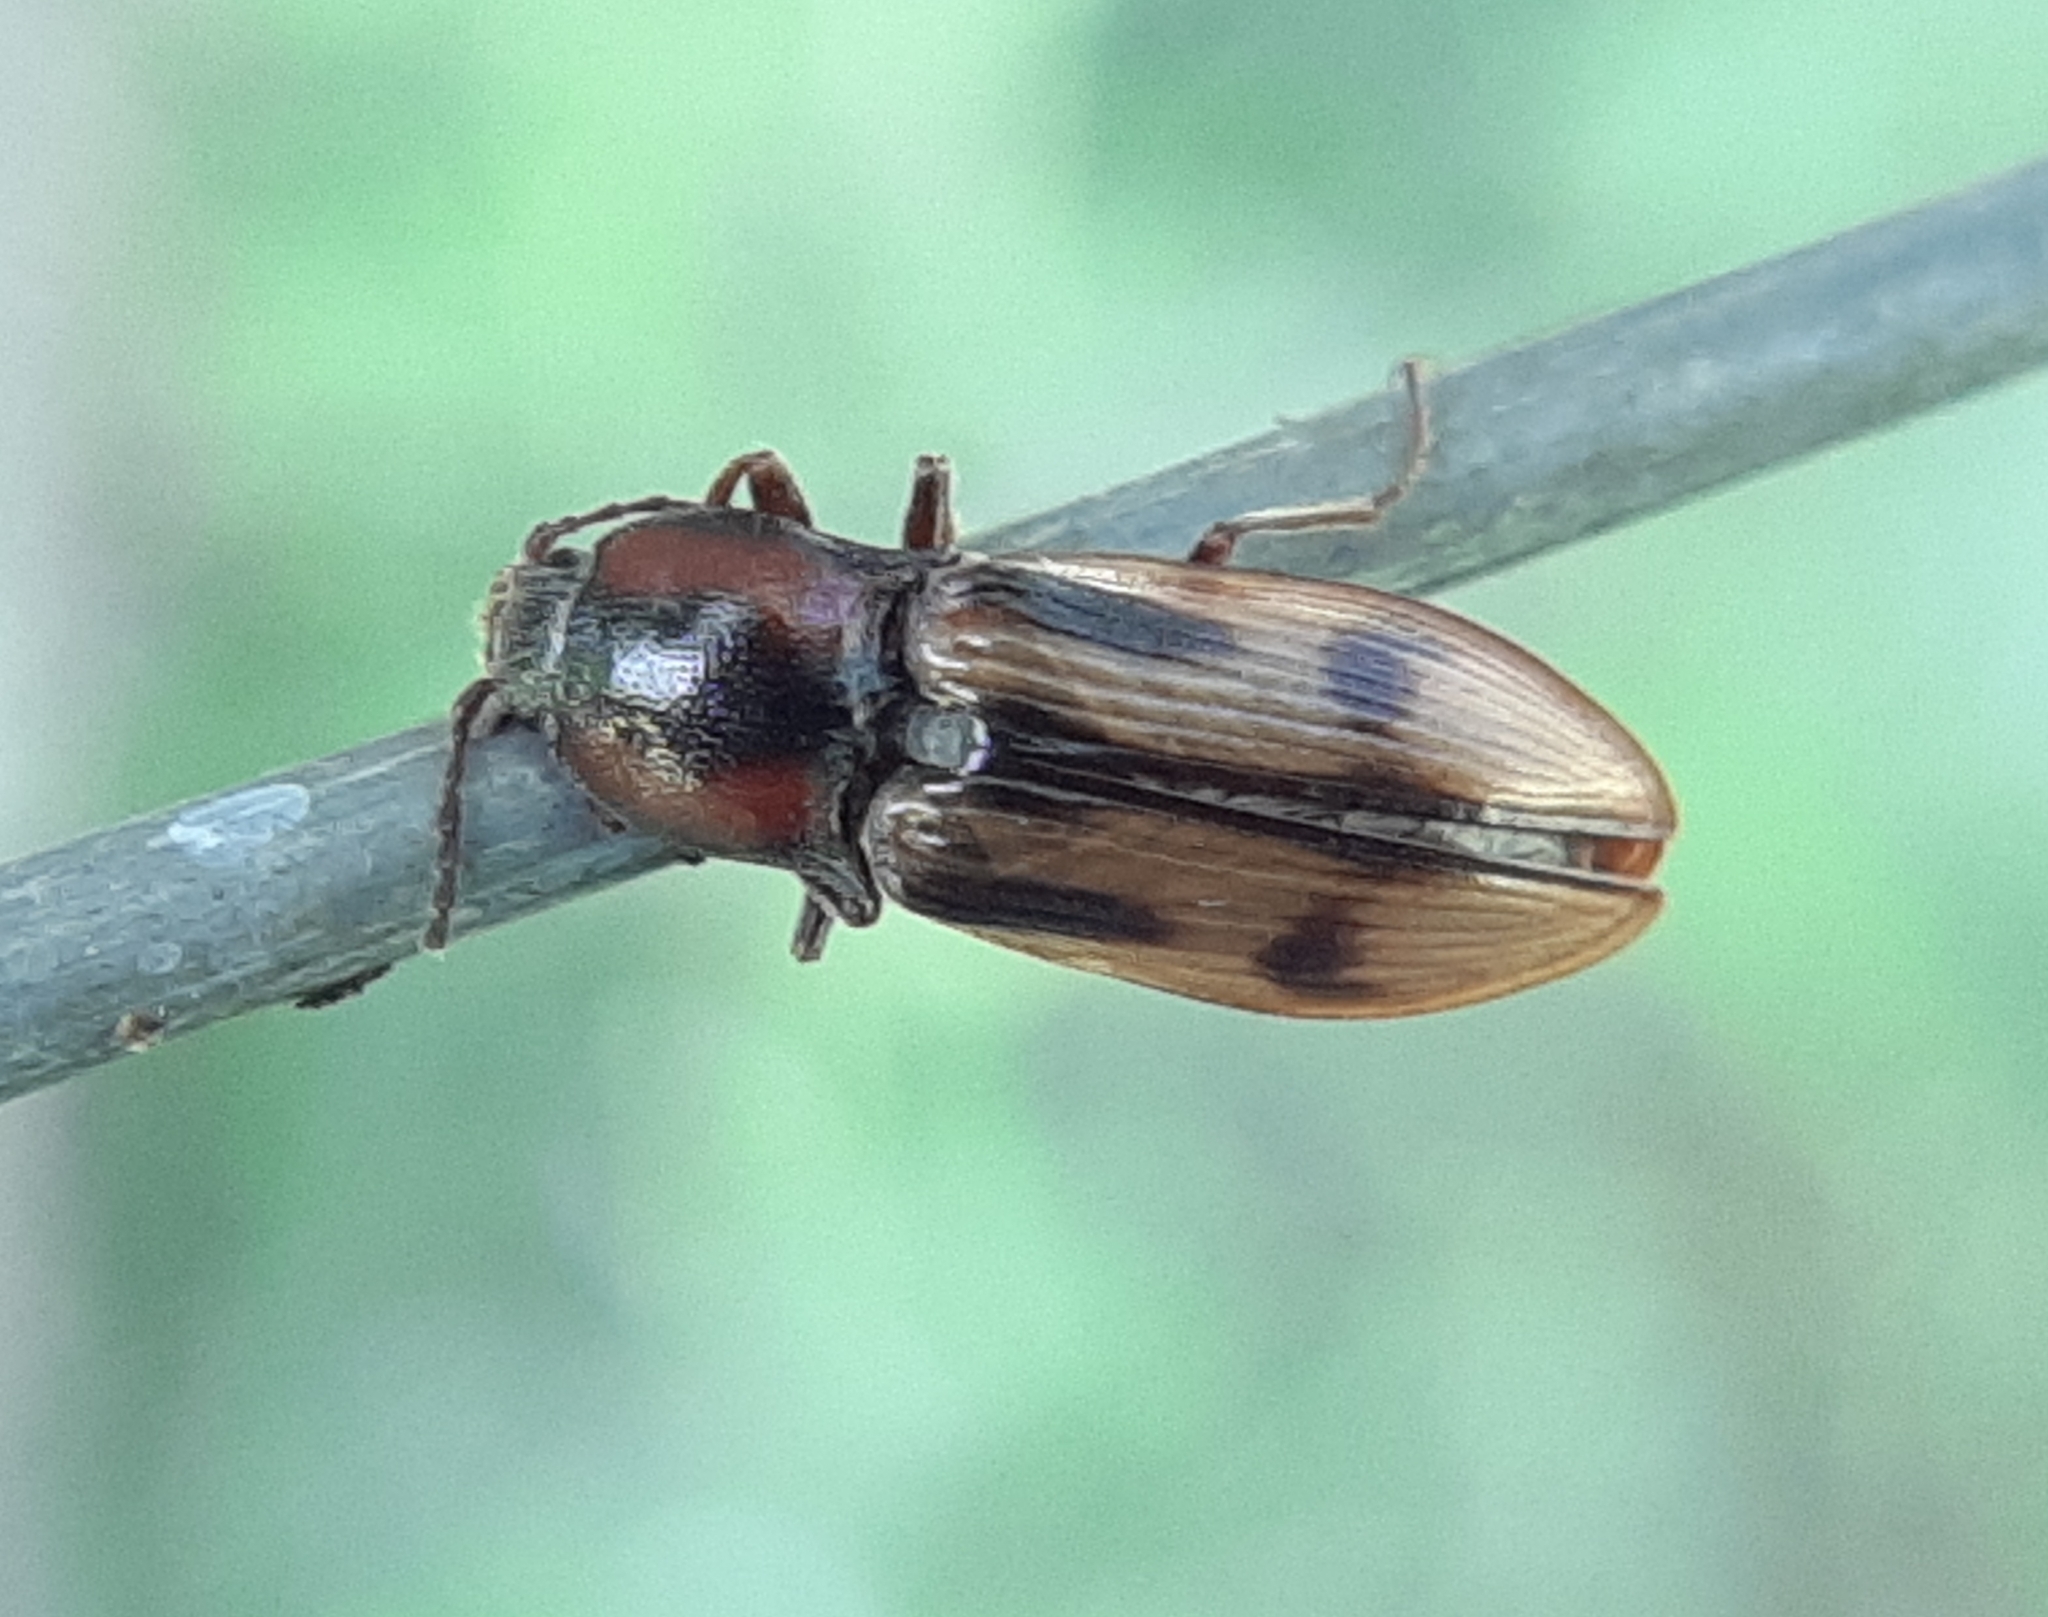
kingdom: Animalia
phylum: Arthropoda
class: Insecta
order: Coleoptera
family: Elateridae
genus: Selatosomus
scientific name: Selatosomus pulcher
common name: Noble click beetle
